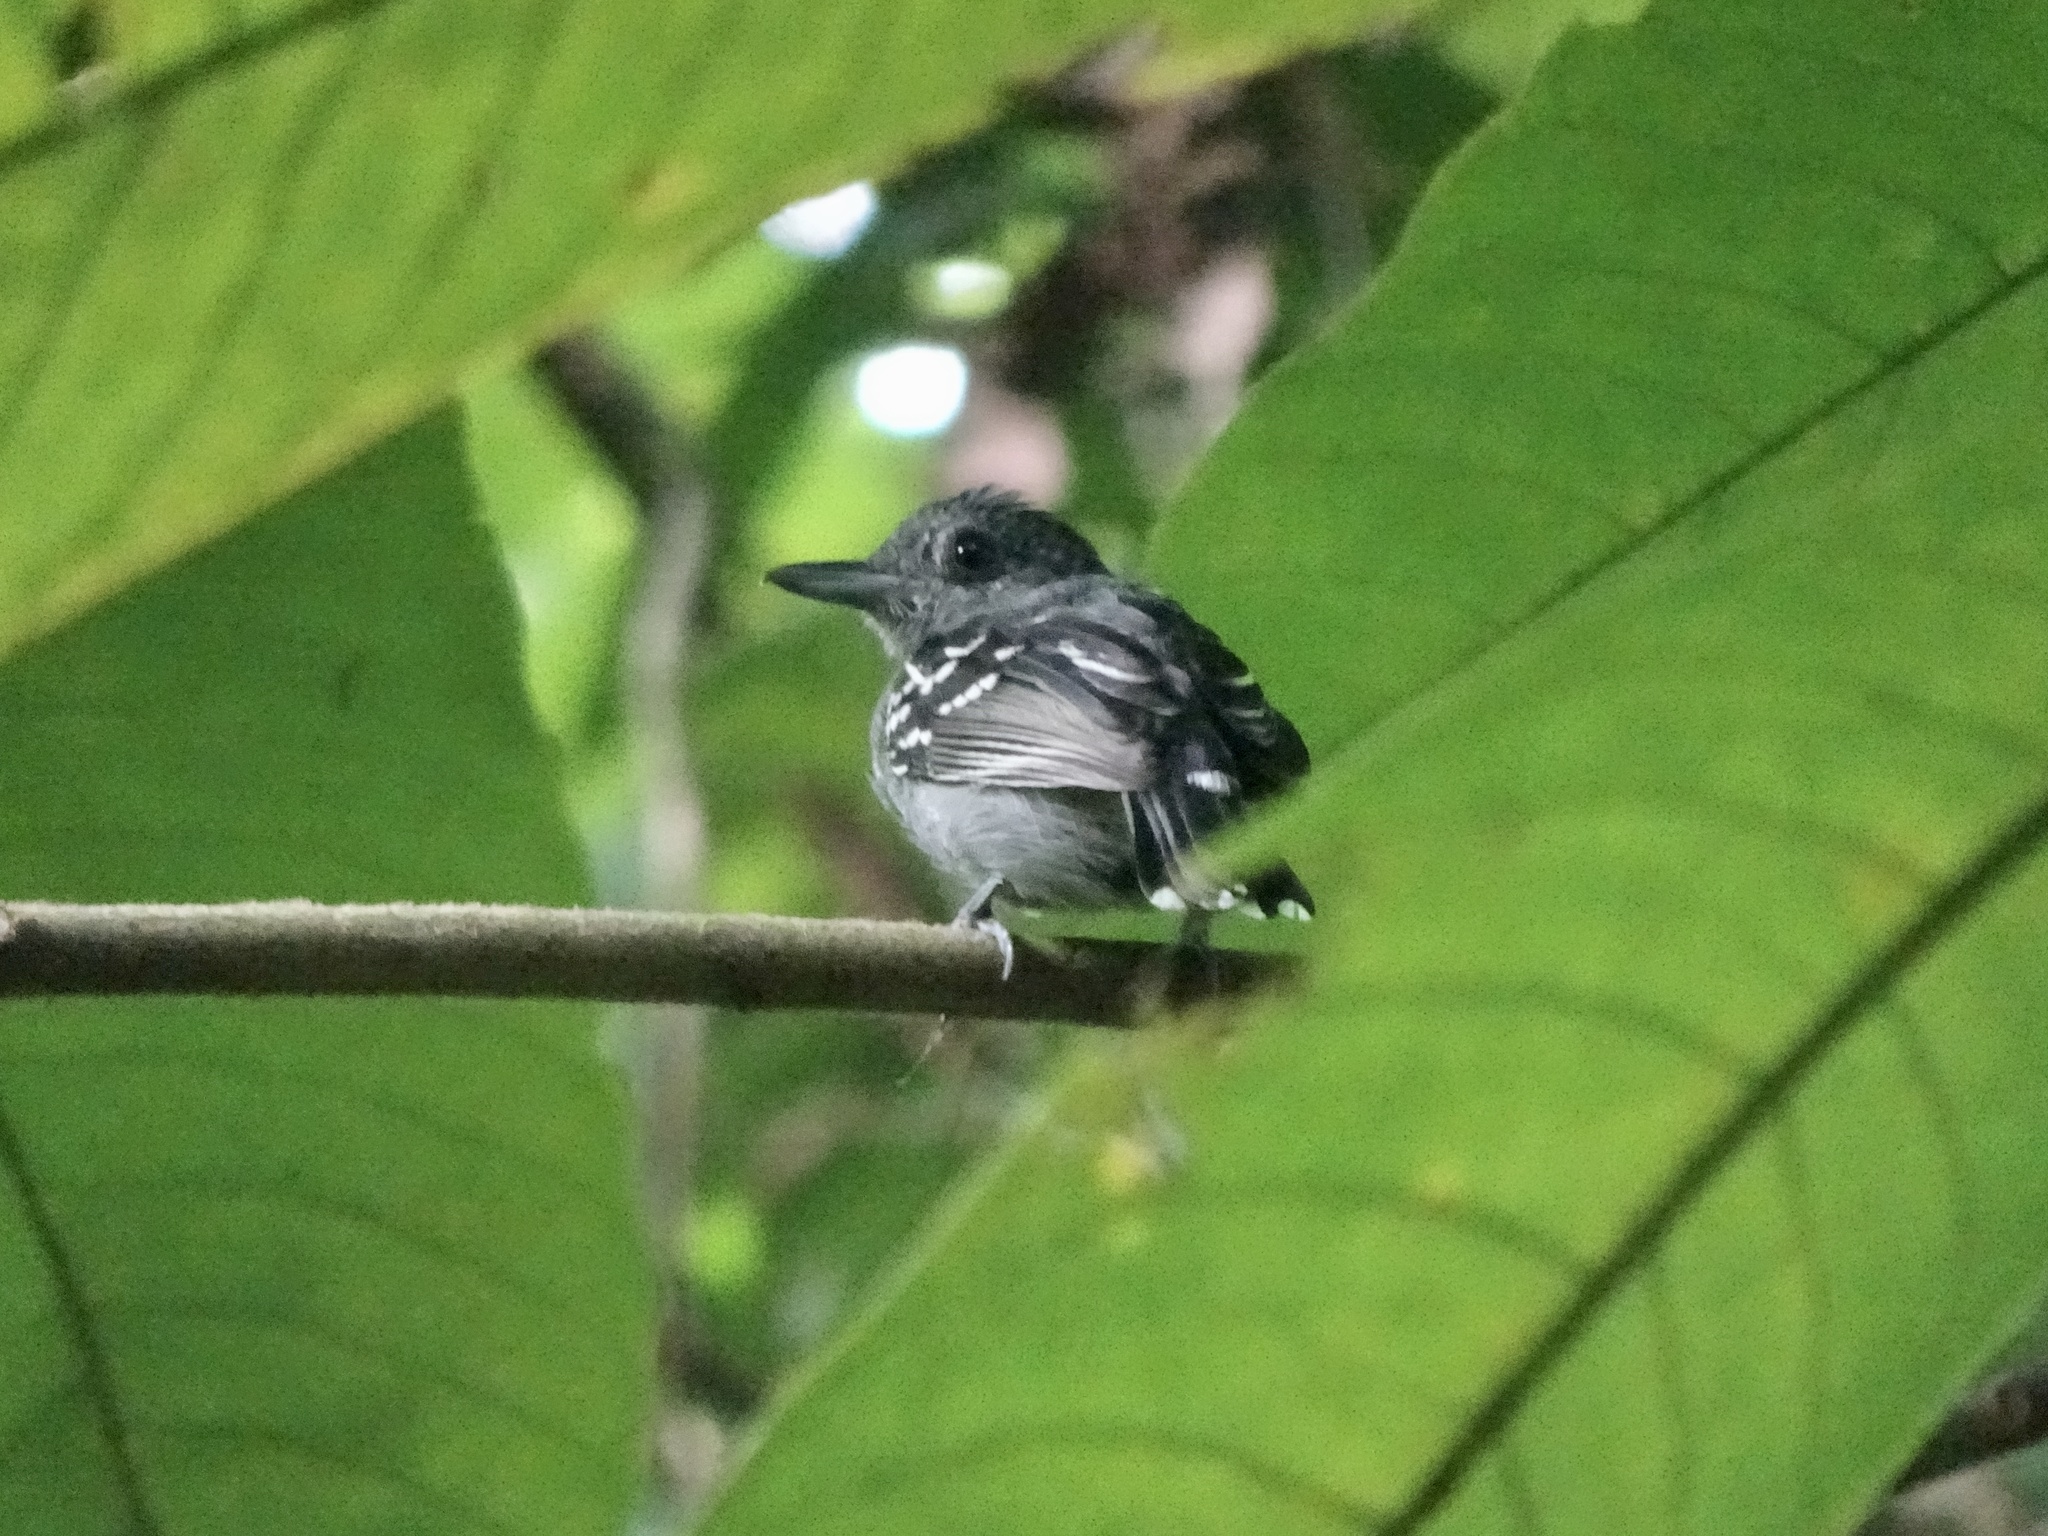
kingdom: Animalia
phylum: Chordata
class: Aves
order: Passeriformes
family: Thamnophilidae
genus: Thamnophilus
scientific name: Thamnophilus atrinucha
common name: Black-crowned antshrike
